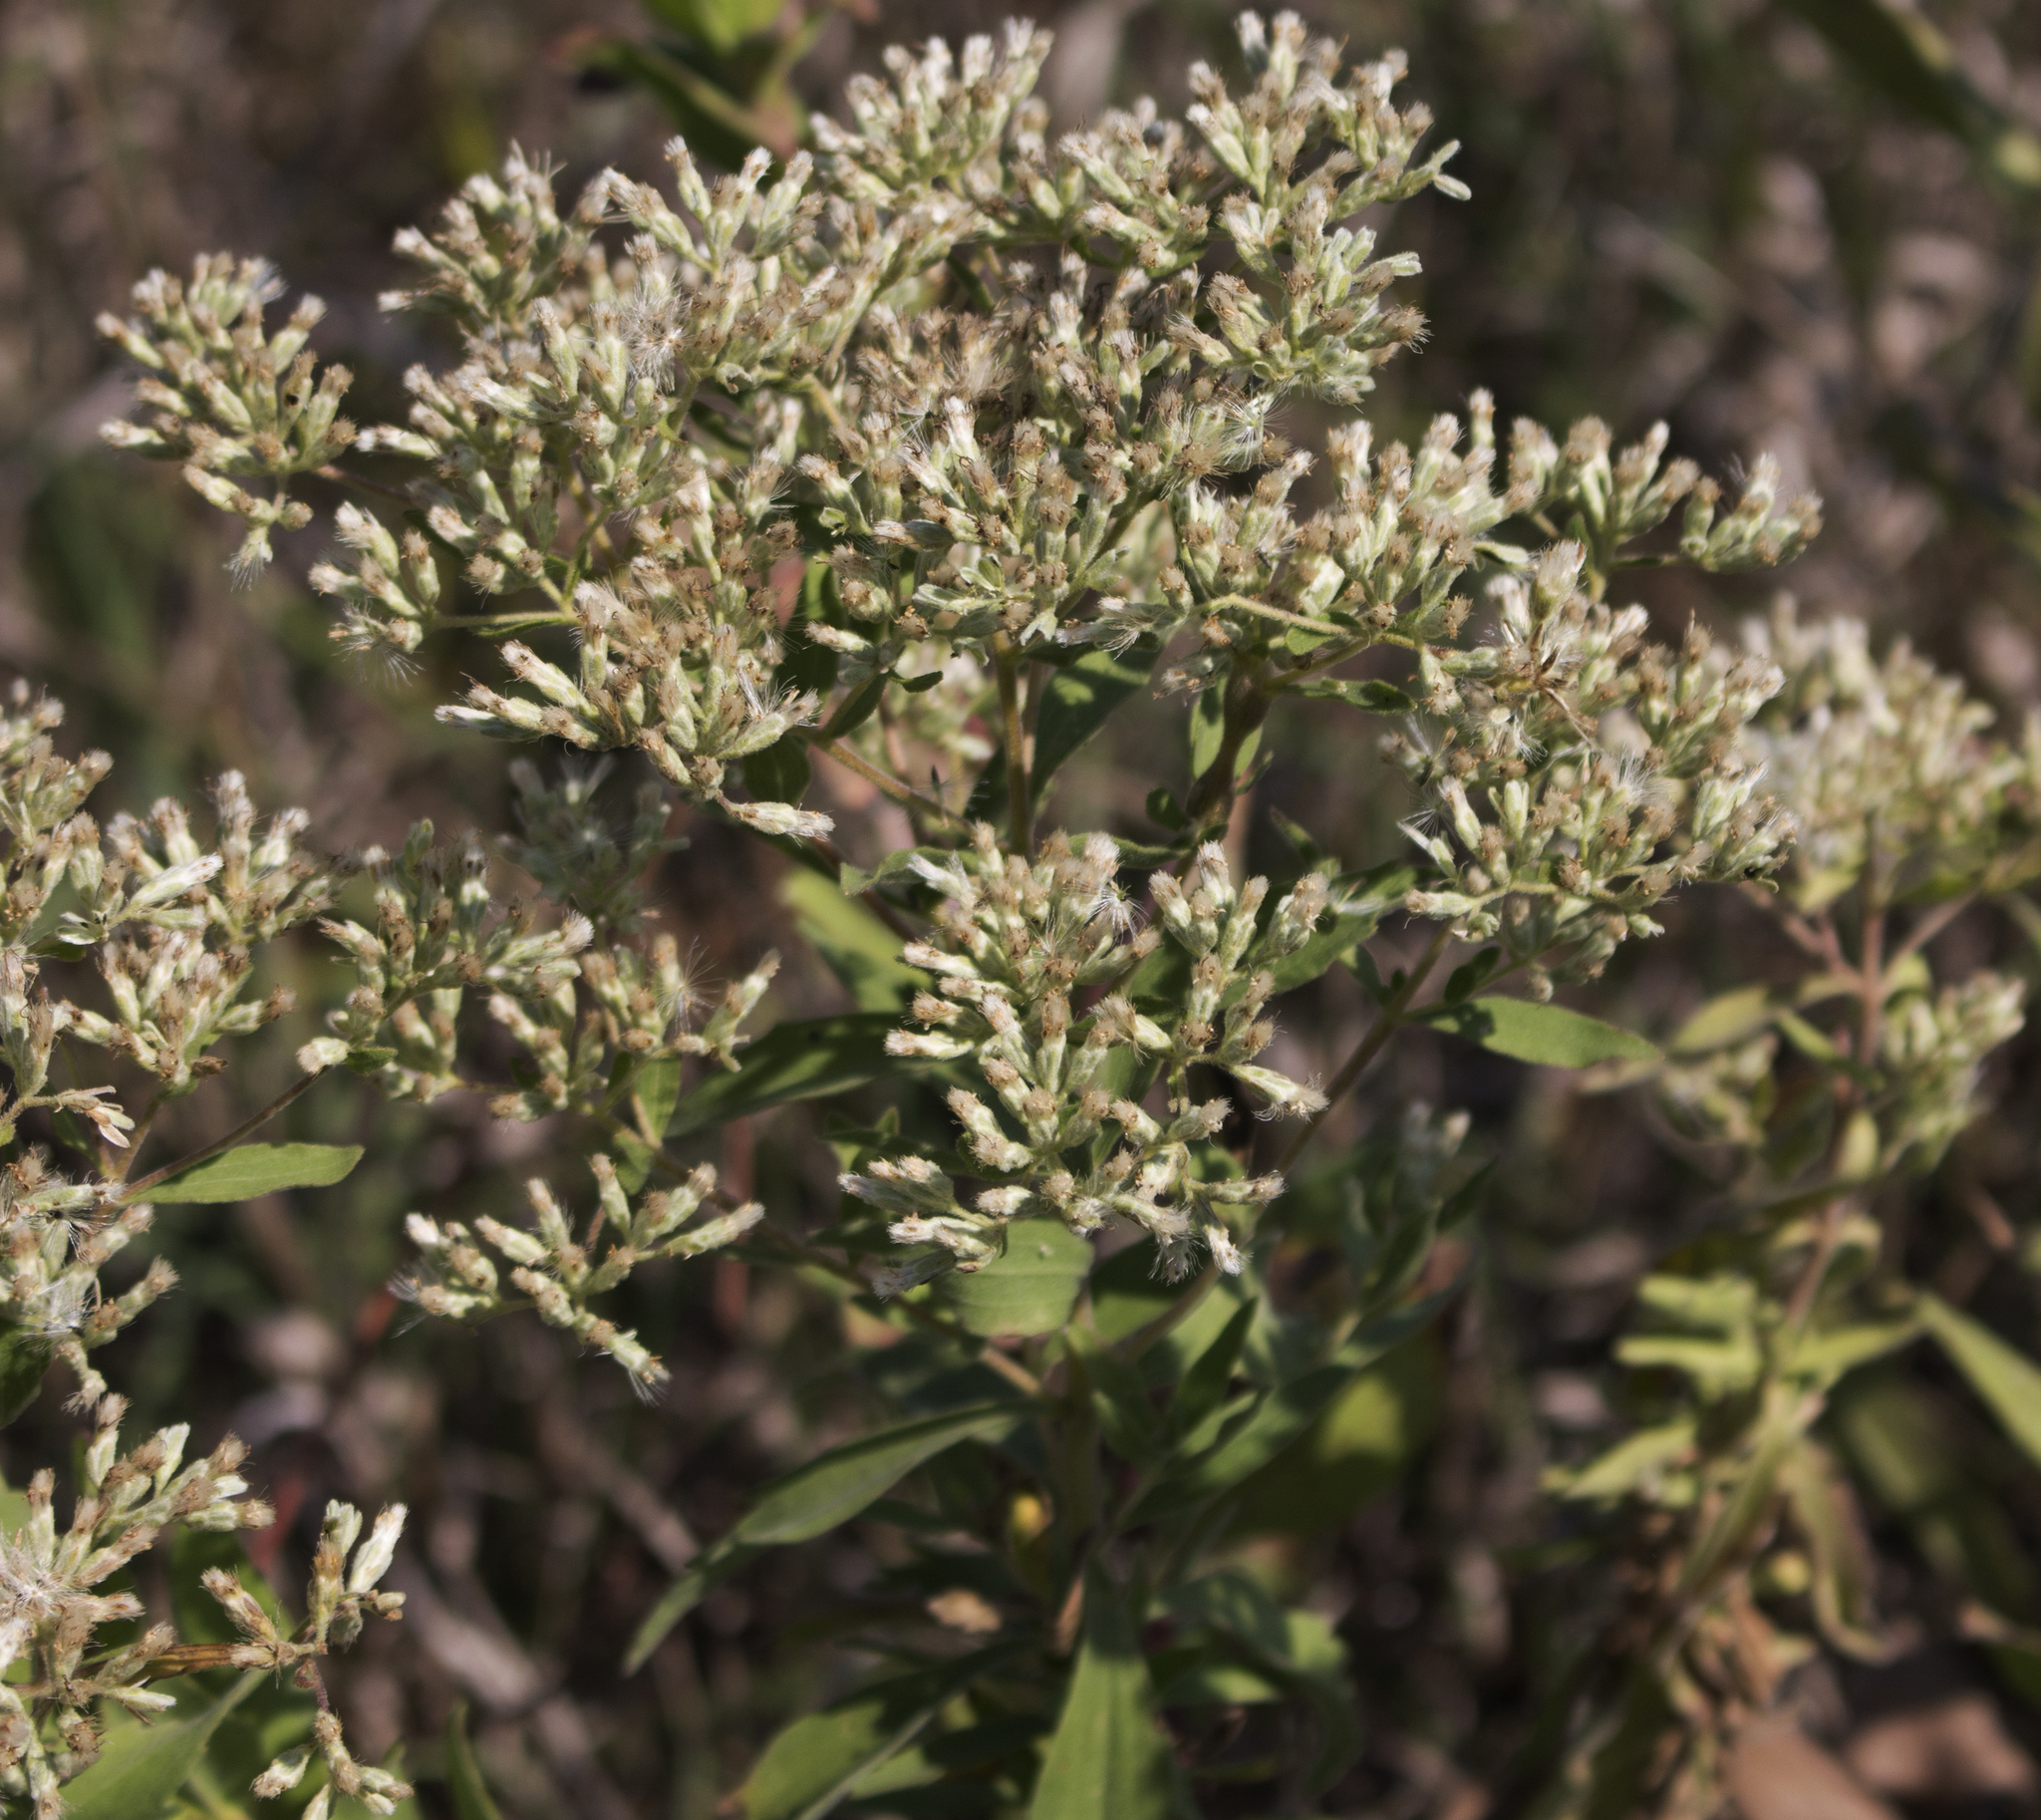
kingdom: Plantae
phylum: Tracheophyta
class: Magnoliopsida
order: Asterales
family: Asteraceae
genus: Eupatorium
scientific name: Eupatorium altissimum
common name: Tall thoroughwort
